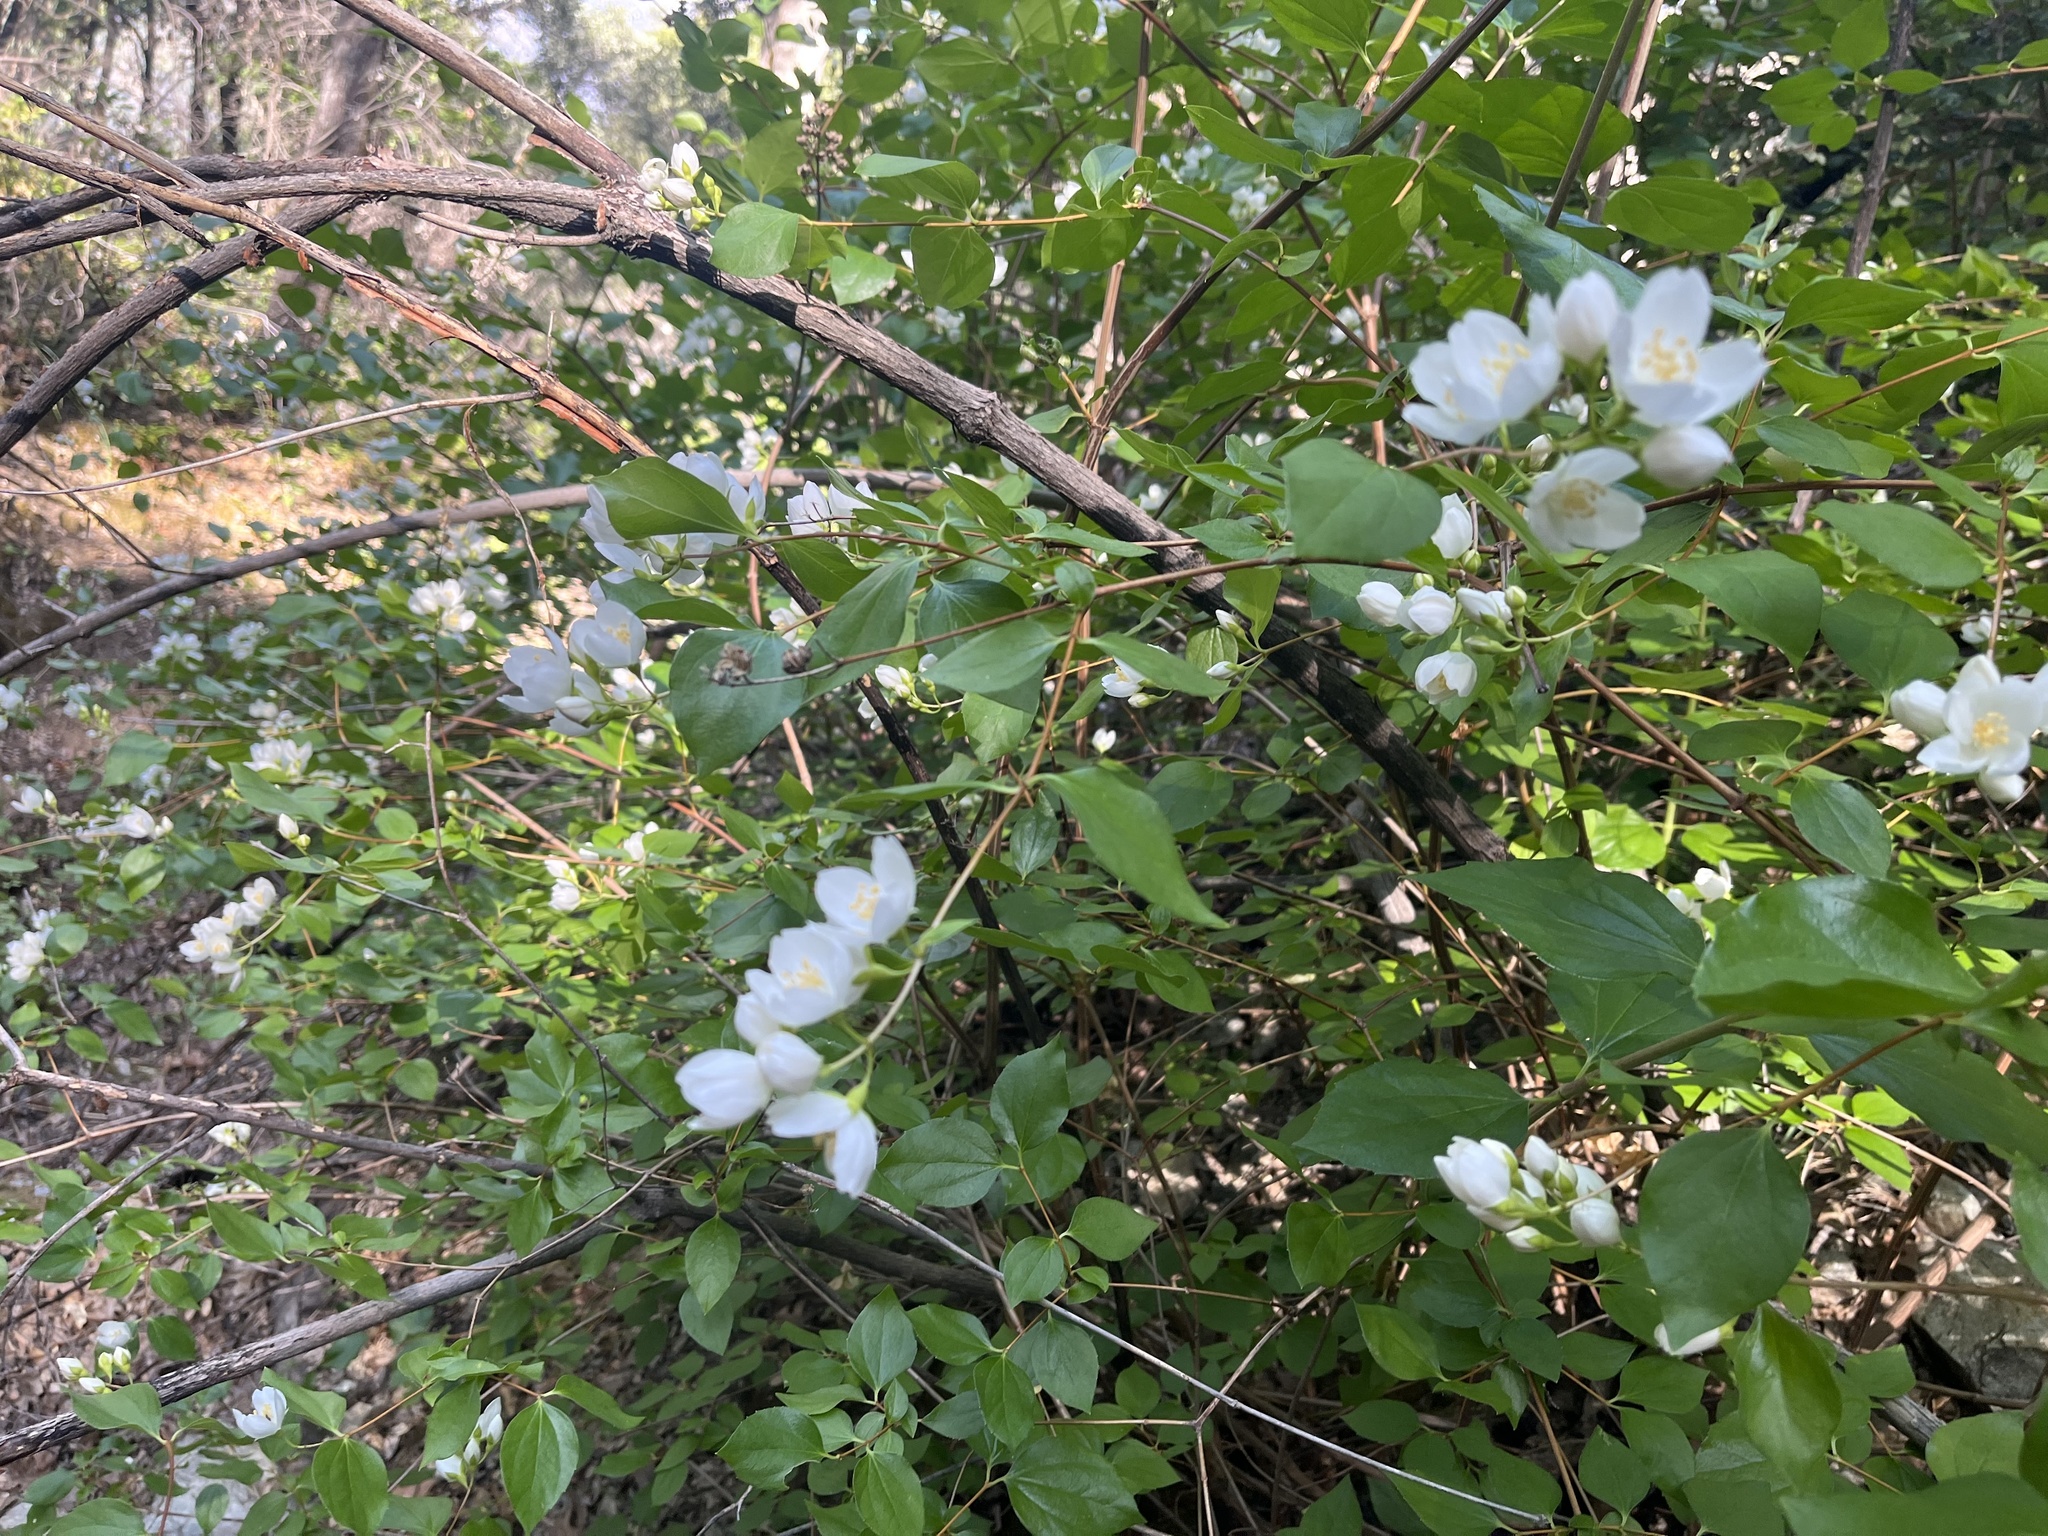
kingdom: Plantae
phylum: Tracheophyta
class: Magnoliopsida
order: Cornales
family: Hydrangeaceae
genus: Philadelphus
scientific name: Philadelphus lewisii
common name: Lewis's mock orange
